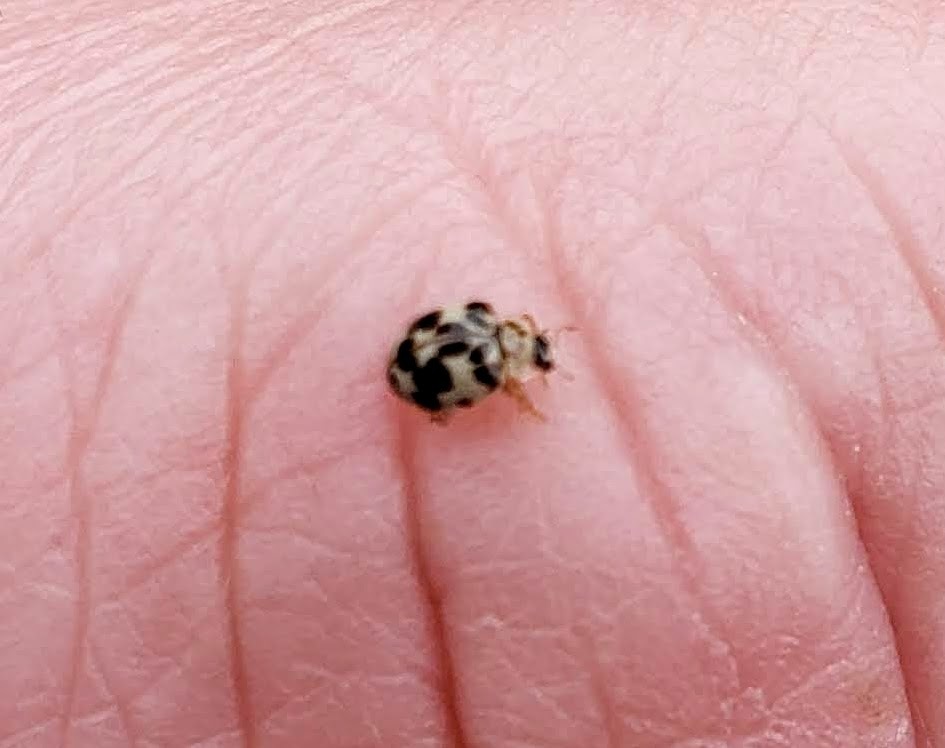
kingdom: Animalia
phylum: Arthropoda
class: Insecta
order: Coleoptera
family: Coccinellidae
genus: Psyllobora
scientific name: Psyllobora borealis
